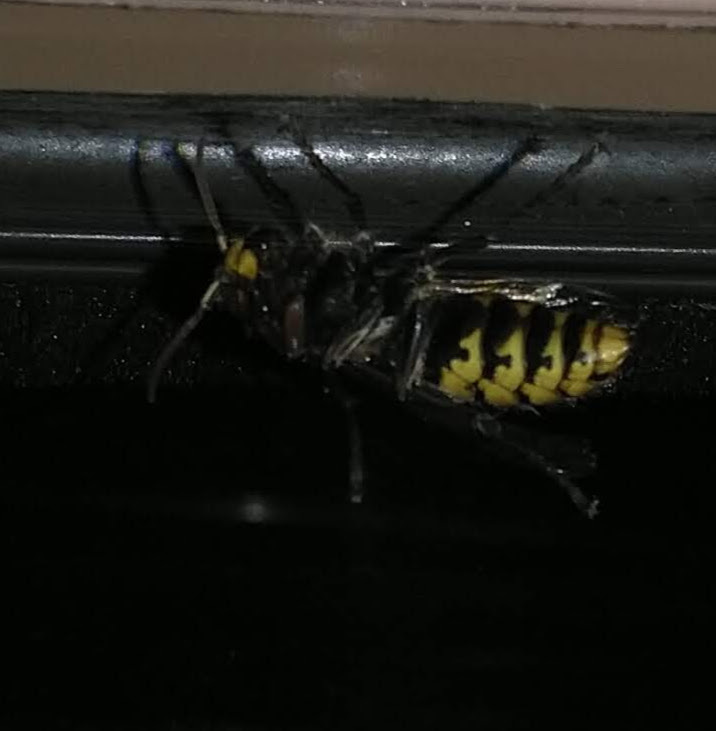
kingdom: Animalia
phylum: Arthropoda
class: Insecta
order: Hymenoptera
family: Vespidae
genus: Vespa
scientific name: Vespa crabro
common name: Hornet
